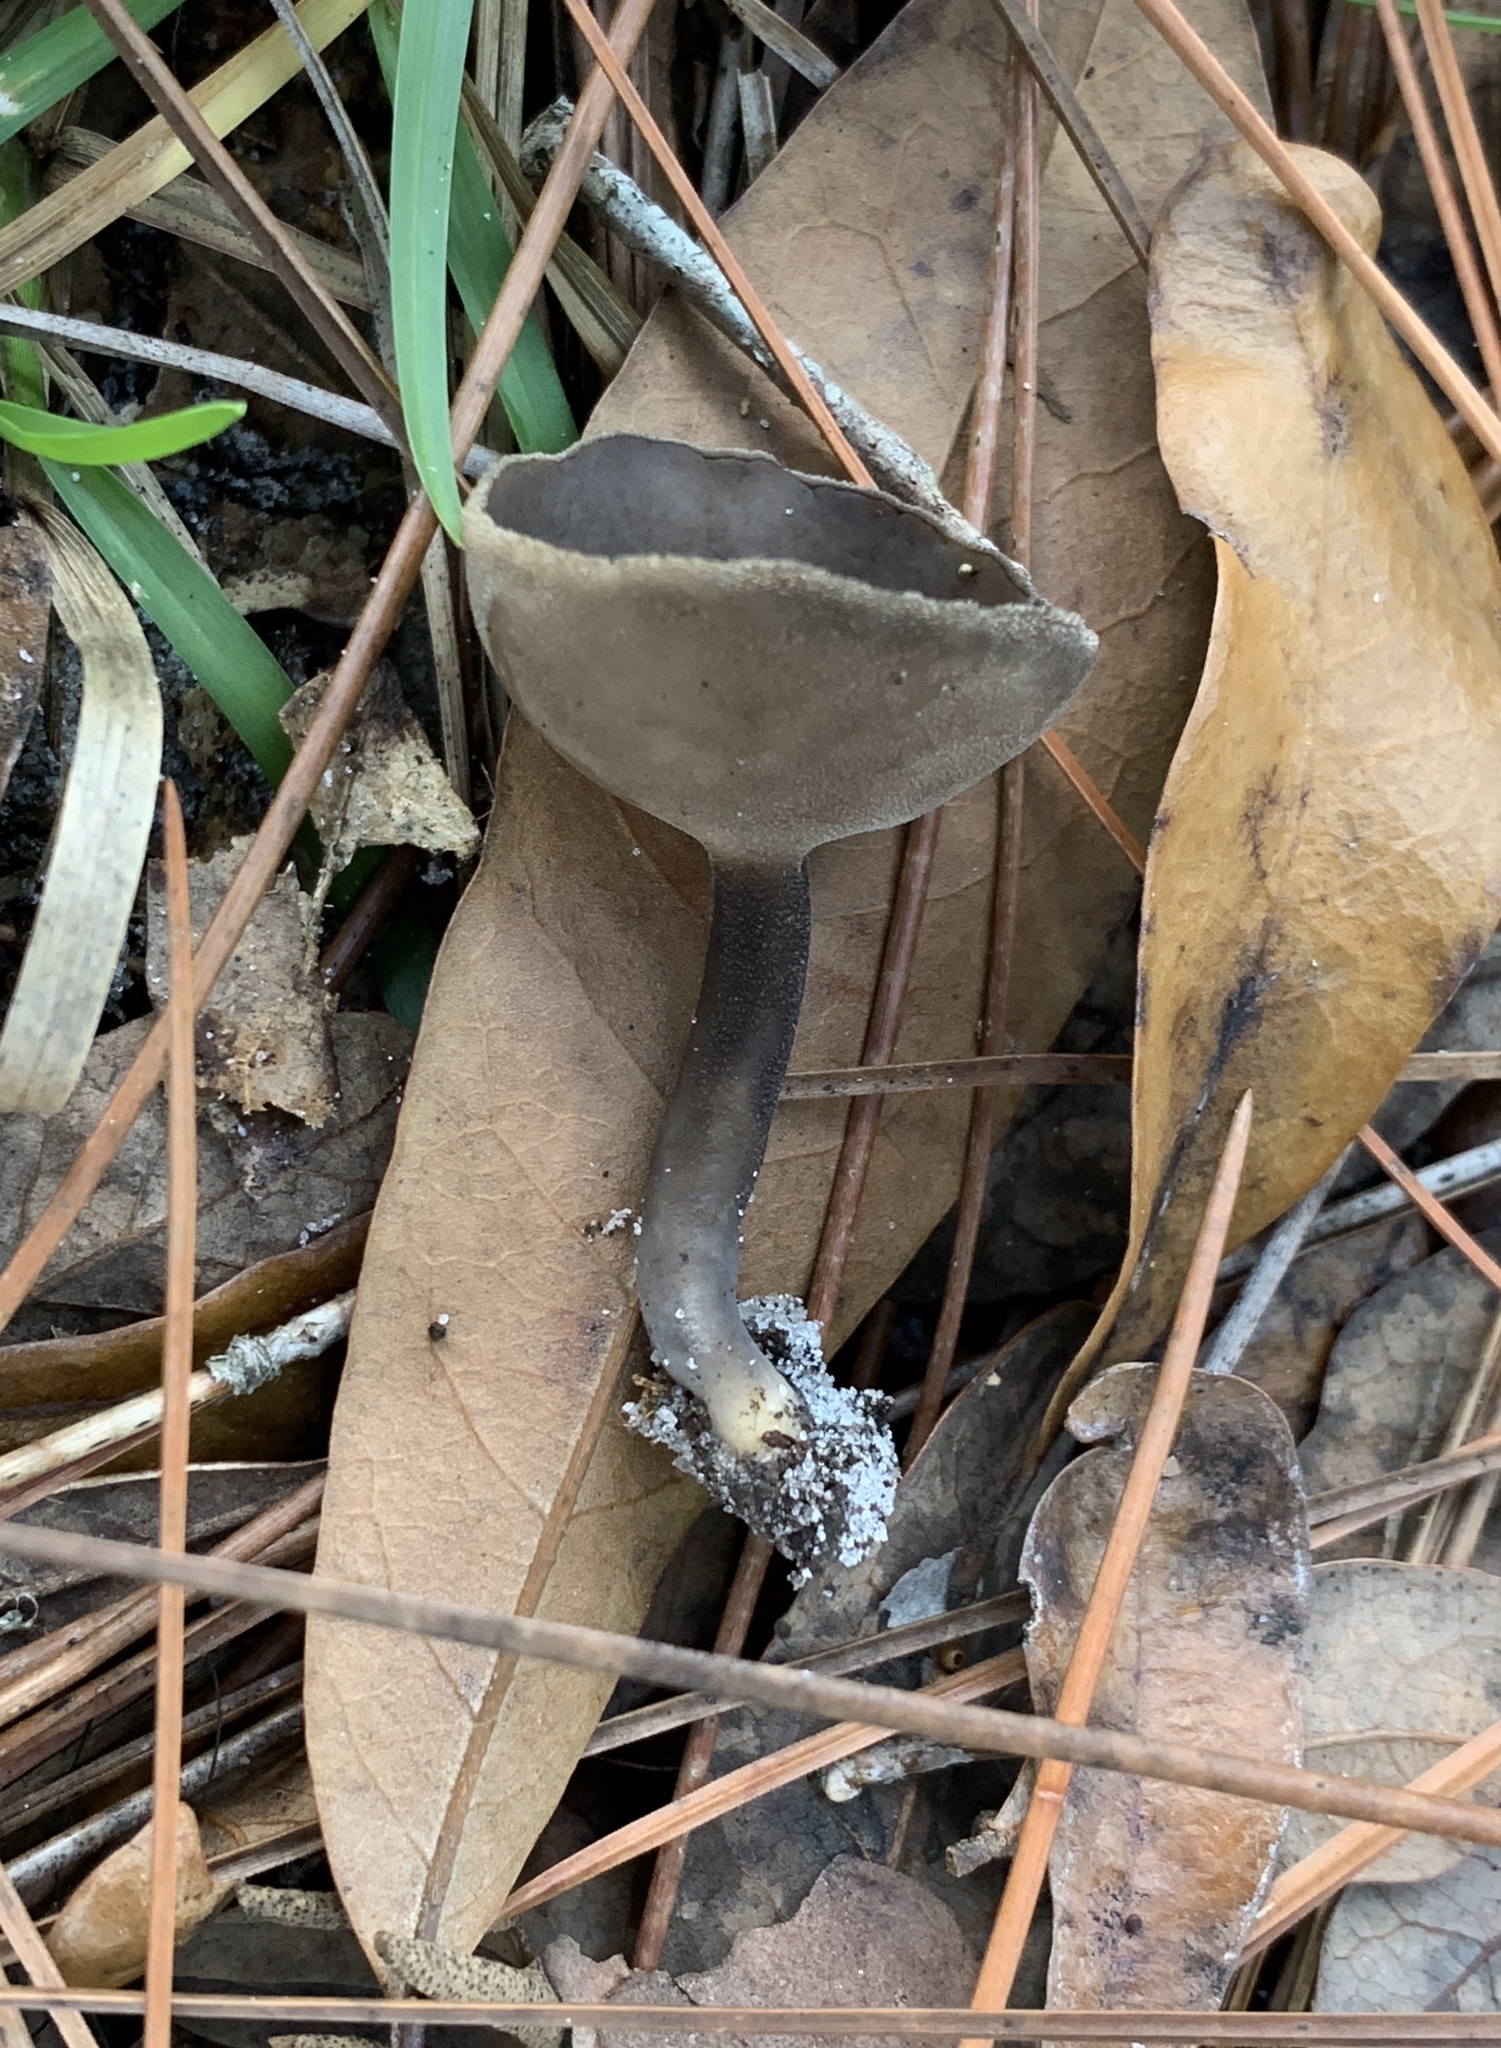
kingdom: Fungi
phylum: Ascomycota
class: Pezizomycetes
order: Pezizales
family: Helvellaceae
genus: Helvella
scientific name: Helvella macropus
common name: Felt saddle
